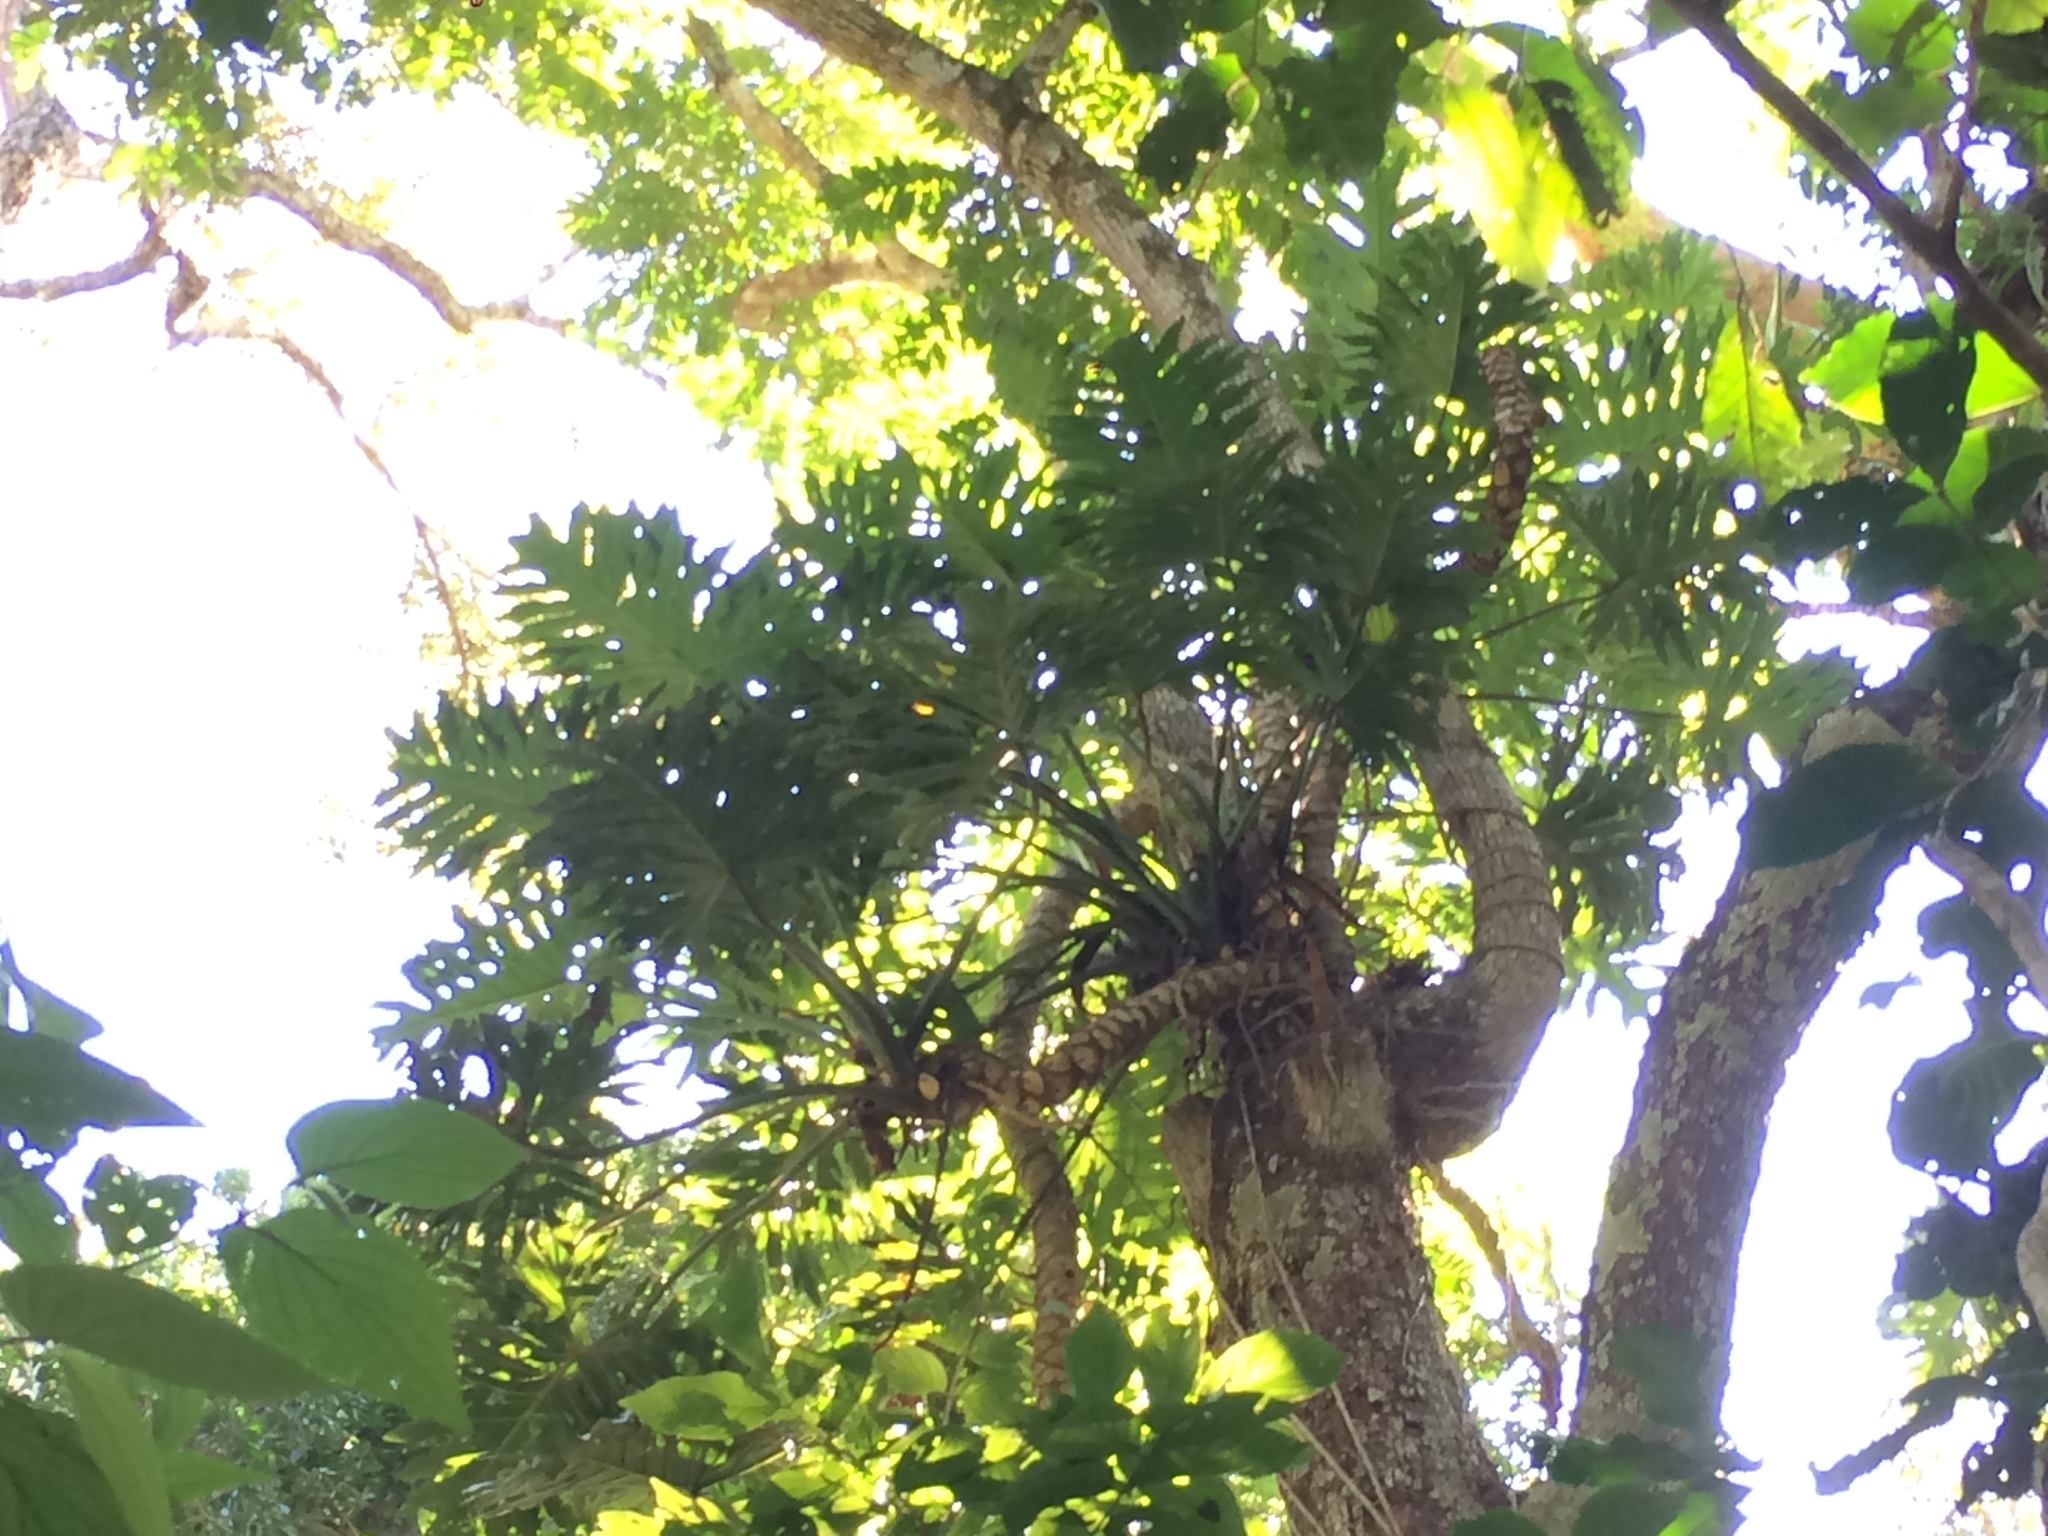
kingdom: Plantae
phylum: Tracheophyta
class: Liliopsida
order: Alismatales
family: Araceae
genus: Thaumatophyllum
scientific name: Thaumatophyllum bipinnatifidum
